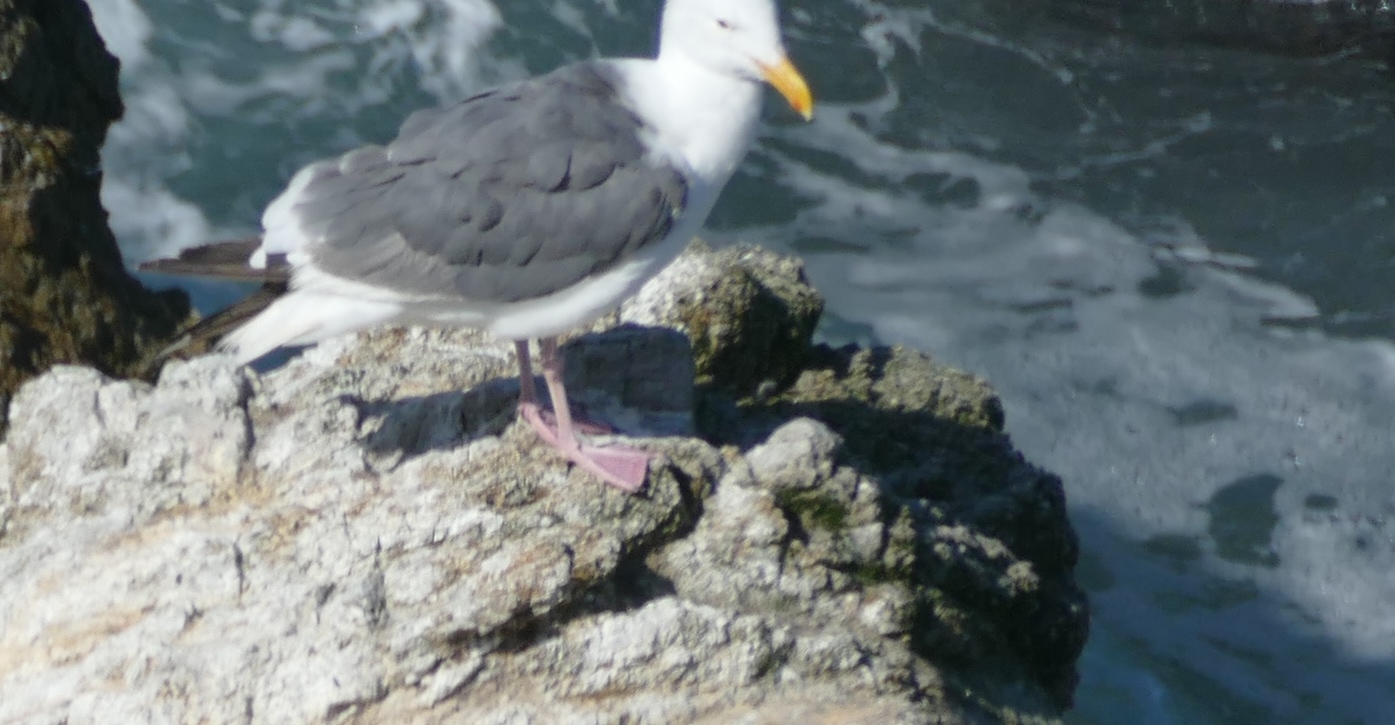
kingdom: Animalia
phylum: Chordata
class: Aves
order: Charadriiformes
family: Laridae
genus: Larus
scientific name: Larus occidentalis
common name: Western gull
